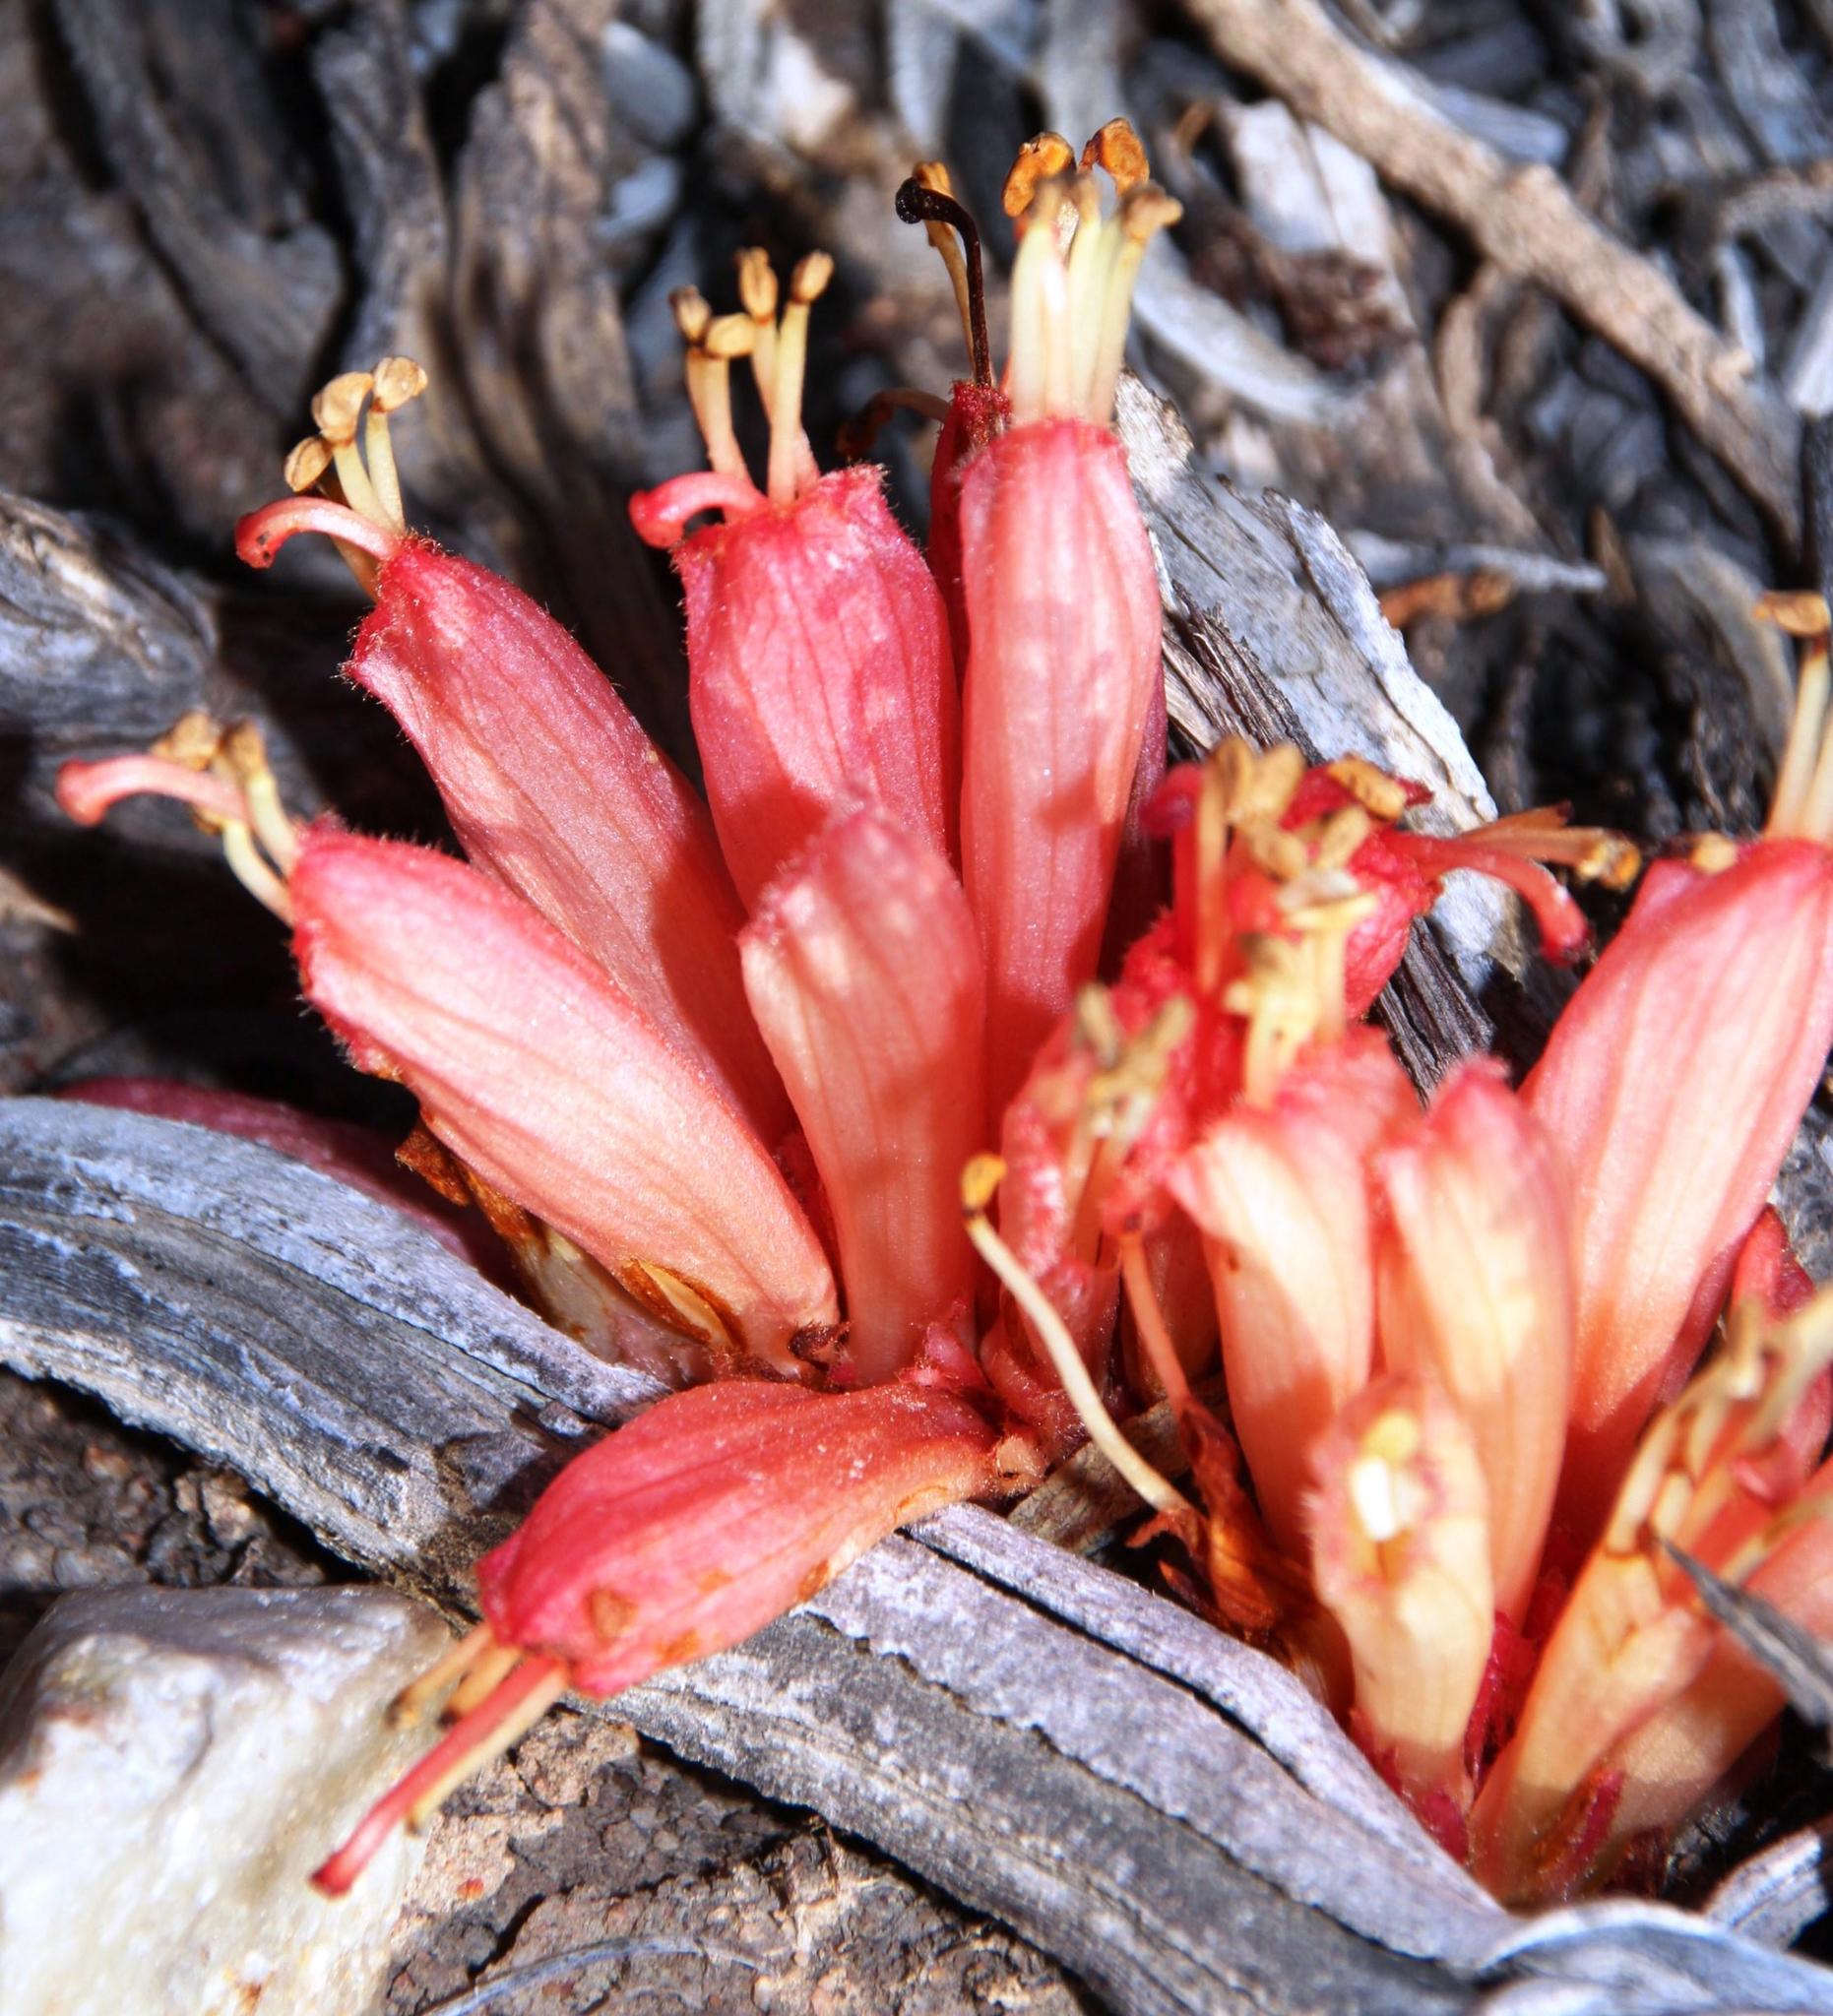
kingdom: Plantae
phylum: Tracheophyta
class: Magnoliopsida
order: Lamiales
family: Orobanchaceae
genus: Hyobanche
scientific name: Hyobanche glabrata
